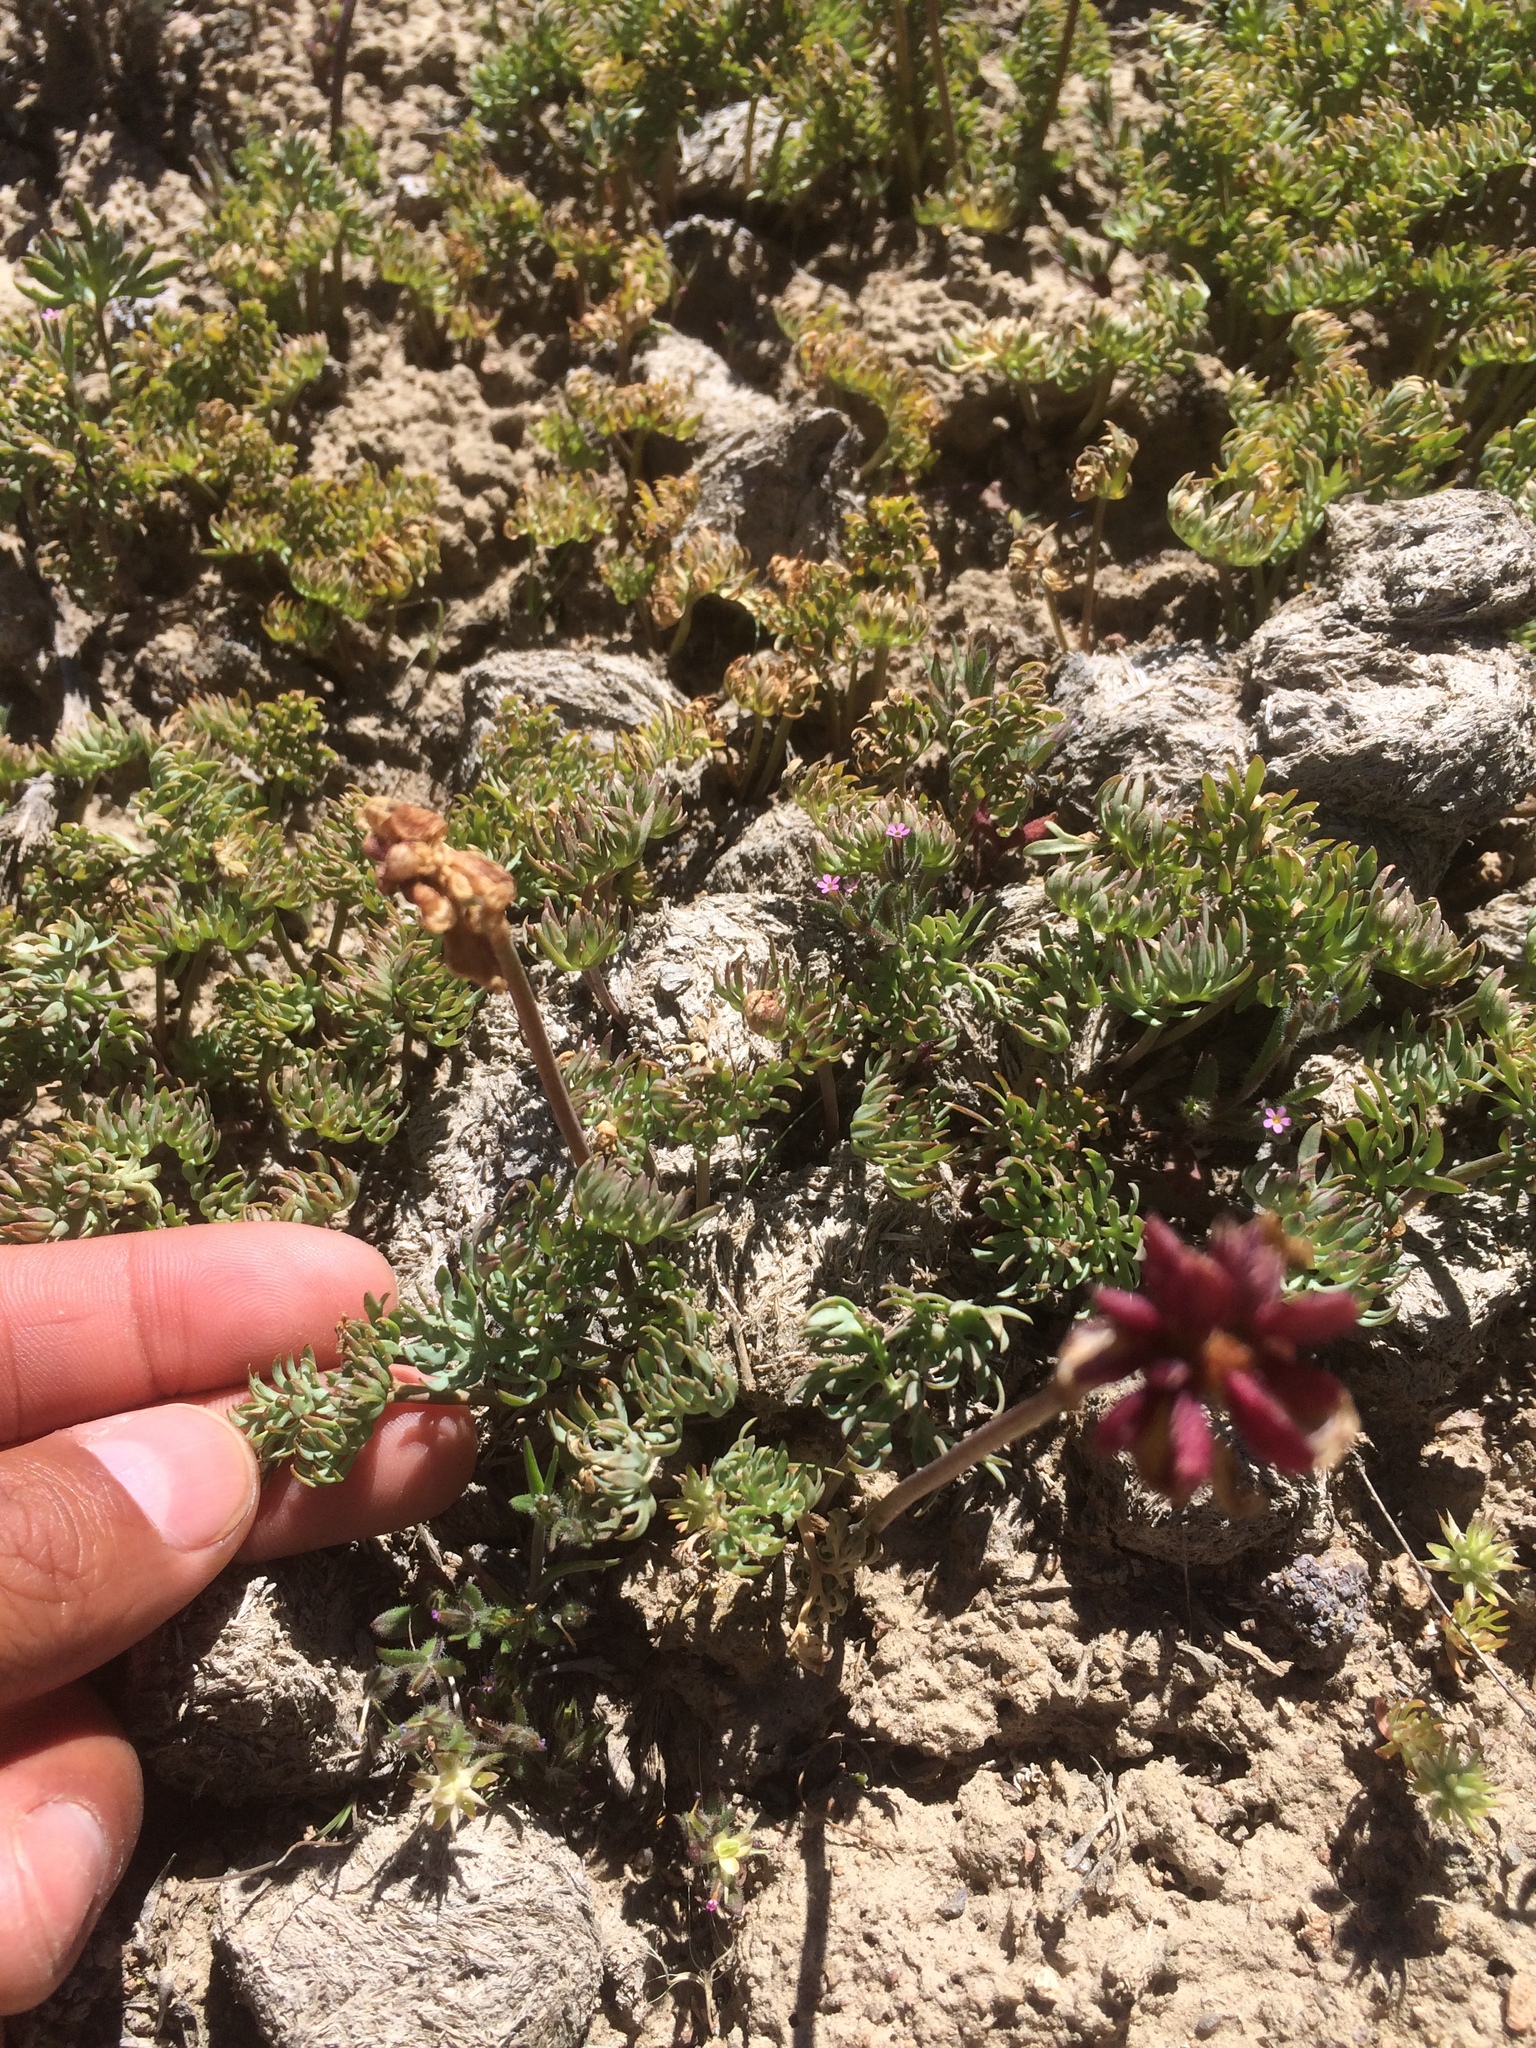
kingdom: Plantae
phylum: Tracheophyta
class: Magnoliopsida
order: Ranunculales
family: Ranunculaceae
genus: Beckwithia
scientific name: Beckwithia andersonii
